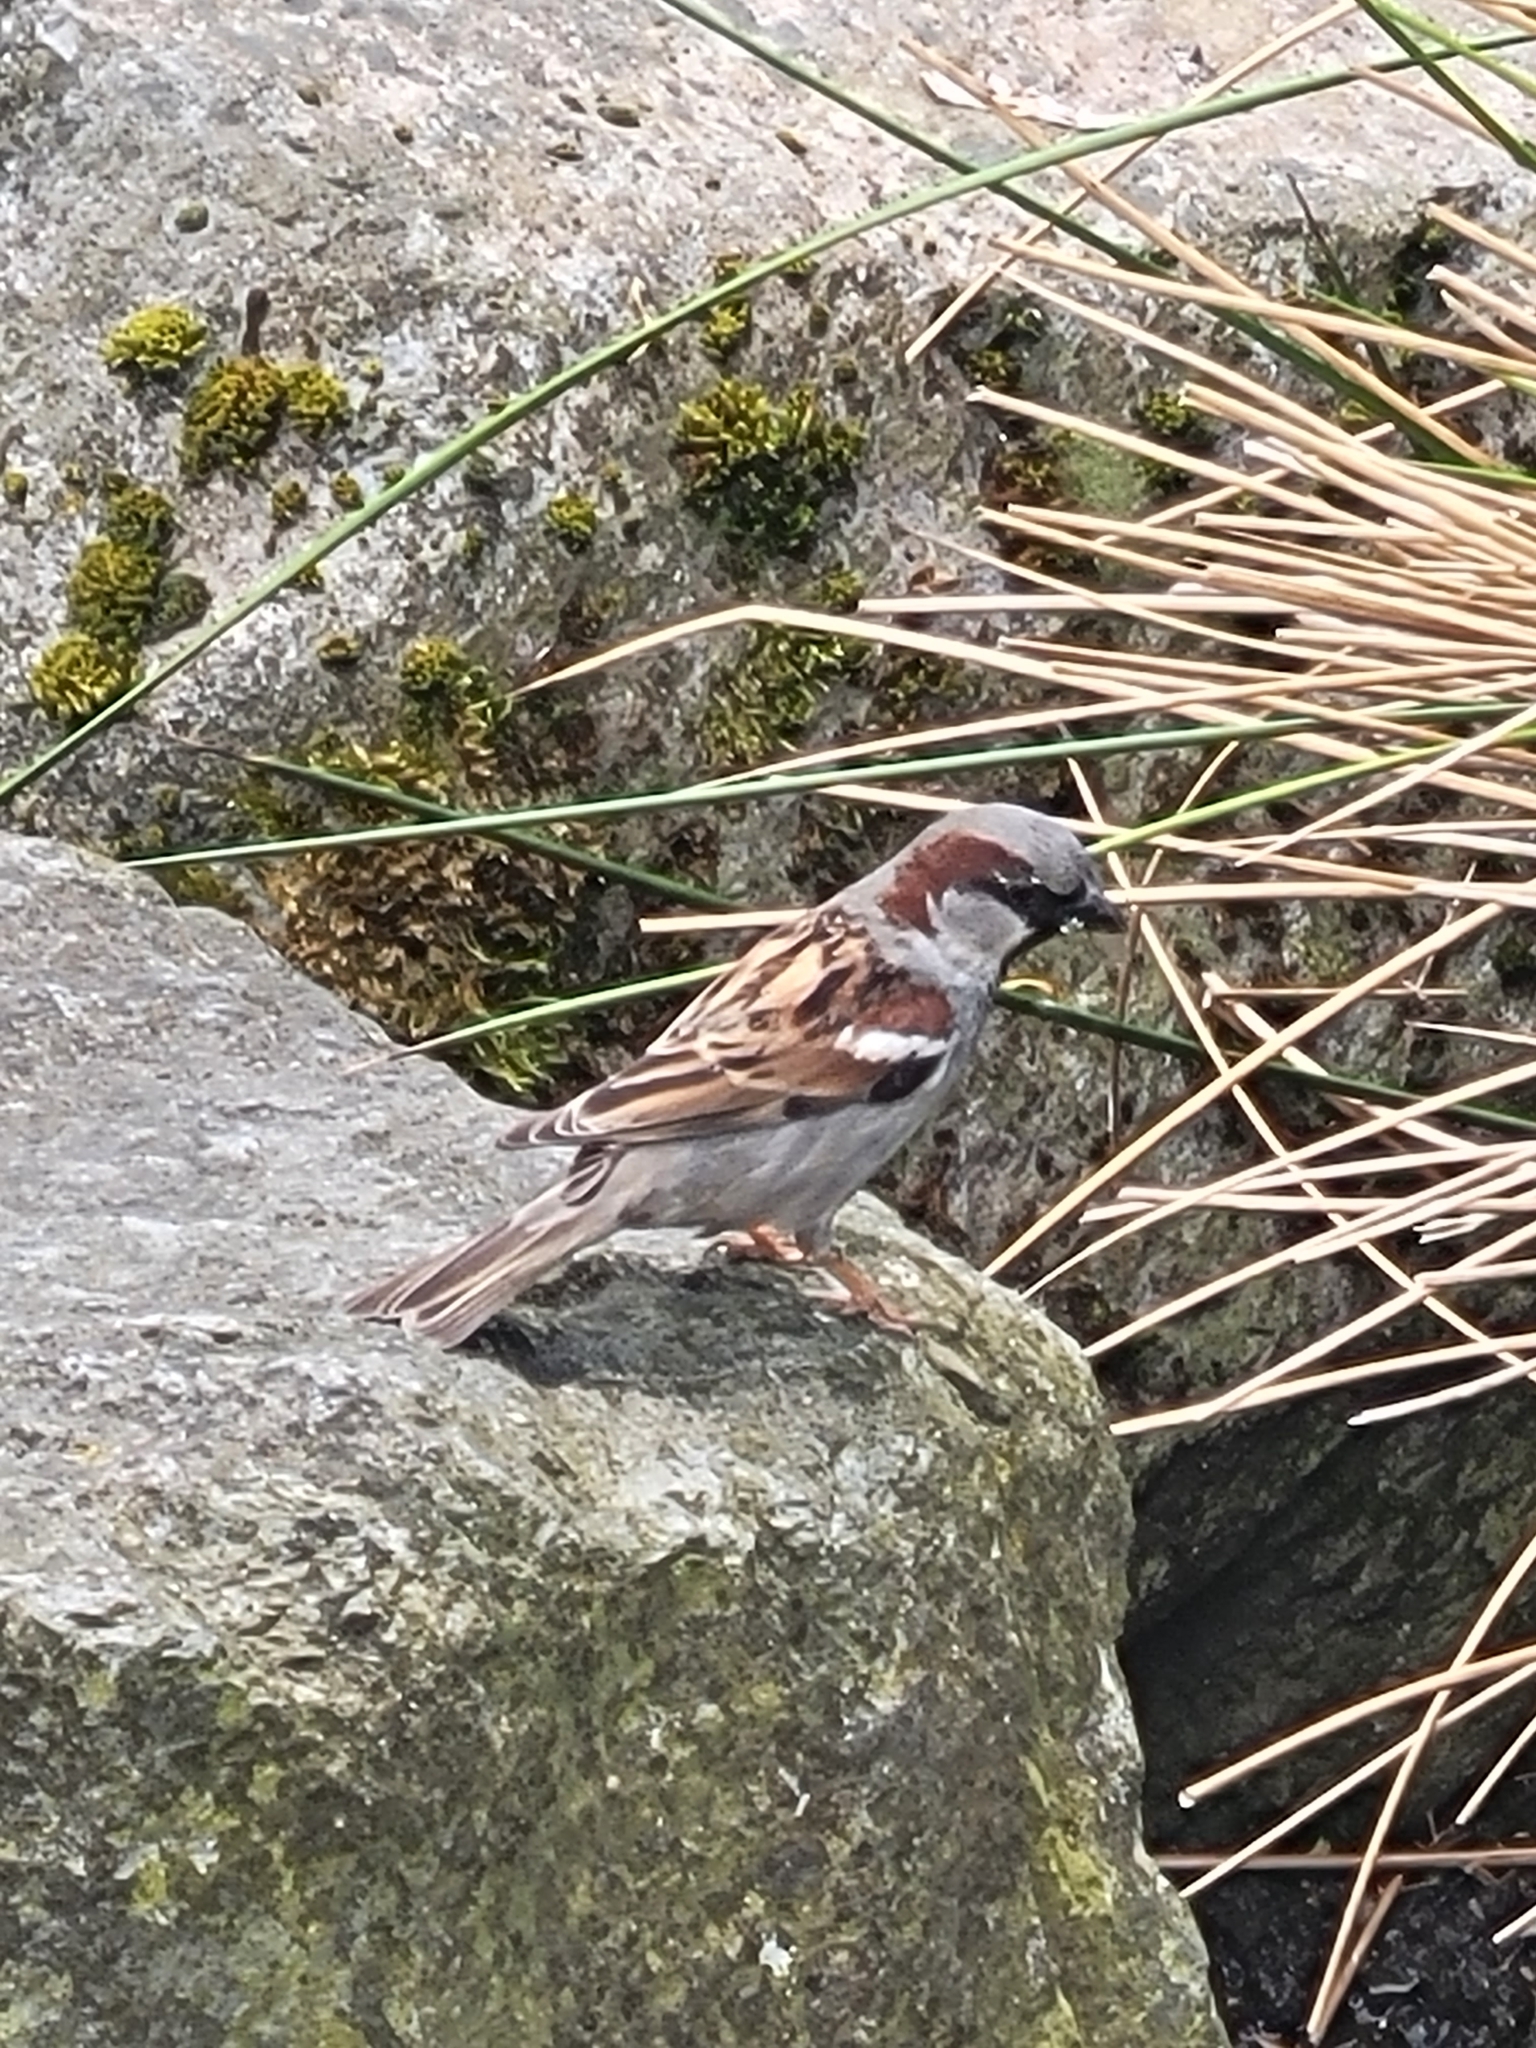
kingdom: Animalia
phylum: Chordata
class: Aves
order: Passeriformes
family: Passeridae
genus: Passer
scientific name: Passer domesticus
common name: House sparrow
